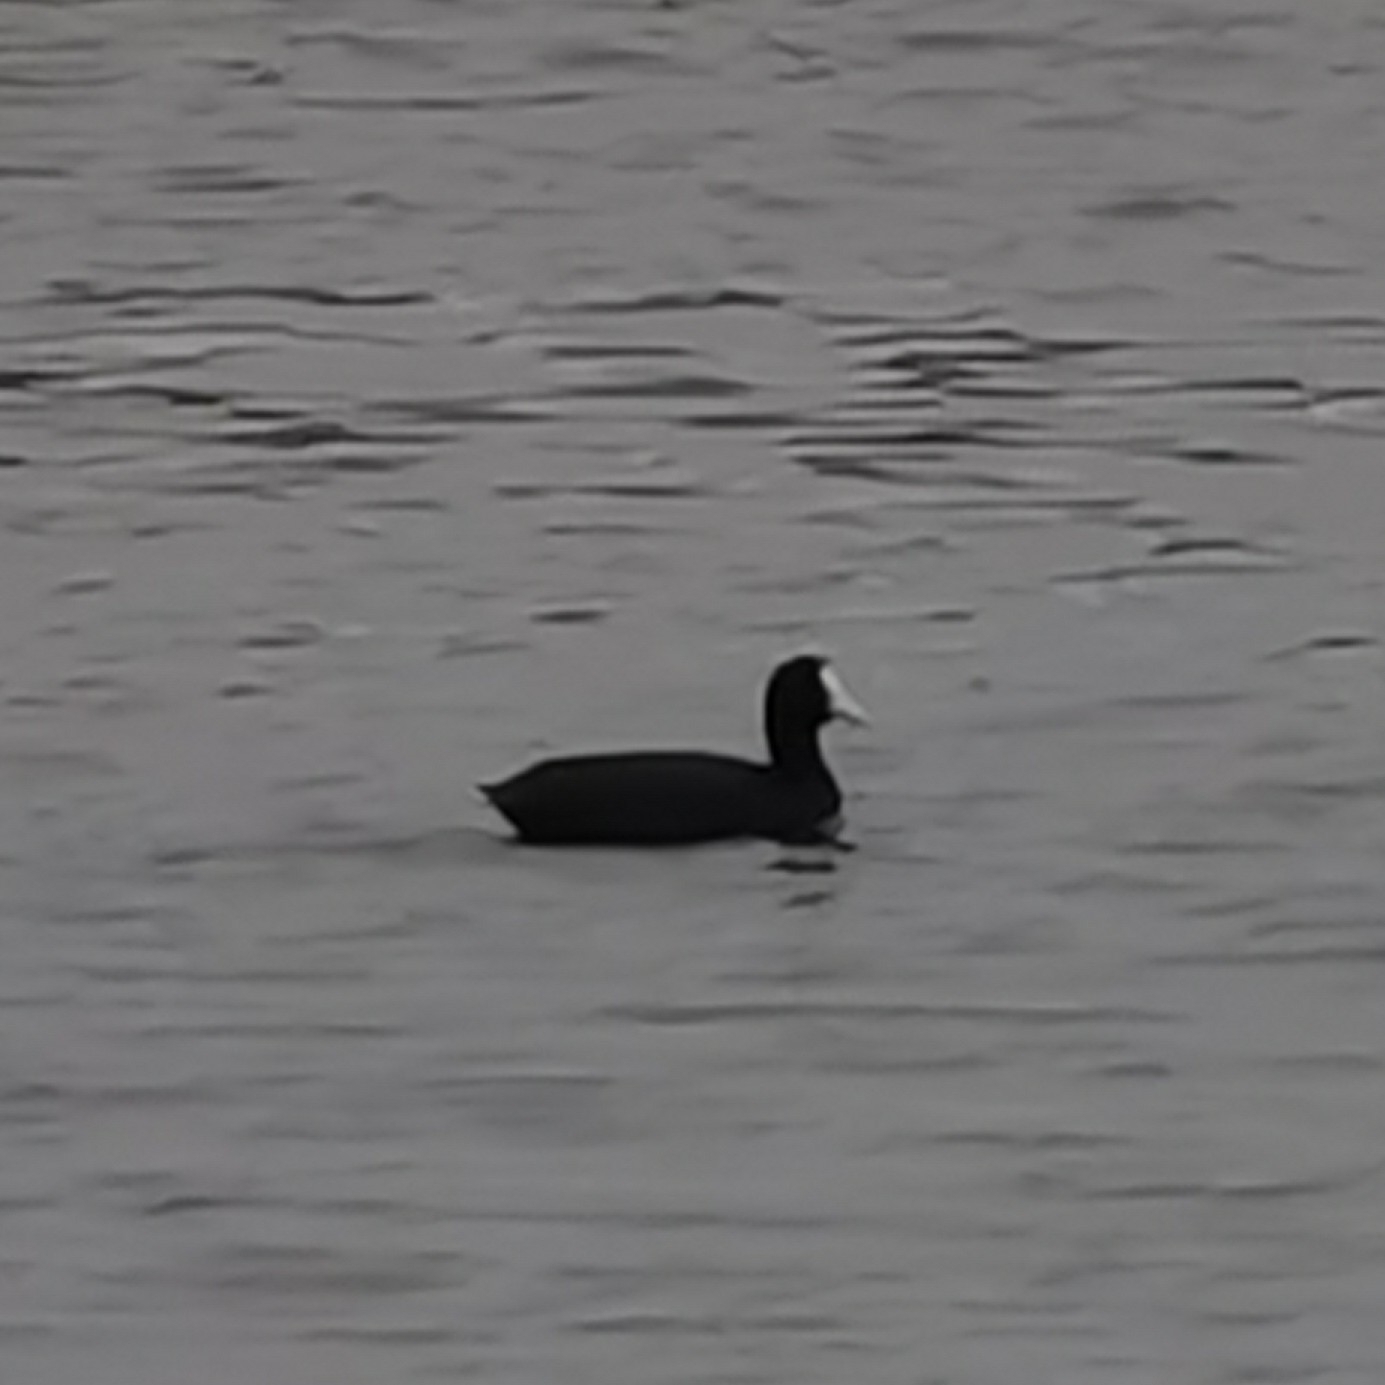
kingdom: Animalia
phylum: Chordata
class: Aves
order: Gruiformes
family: Rallidae
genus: Fulica
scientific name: Fulica atra
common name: Eurasian coot
